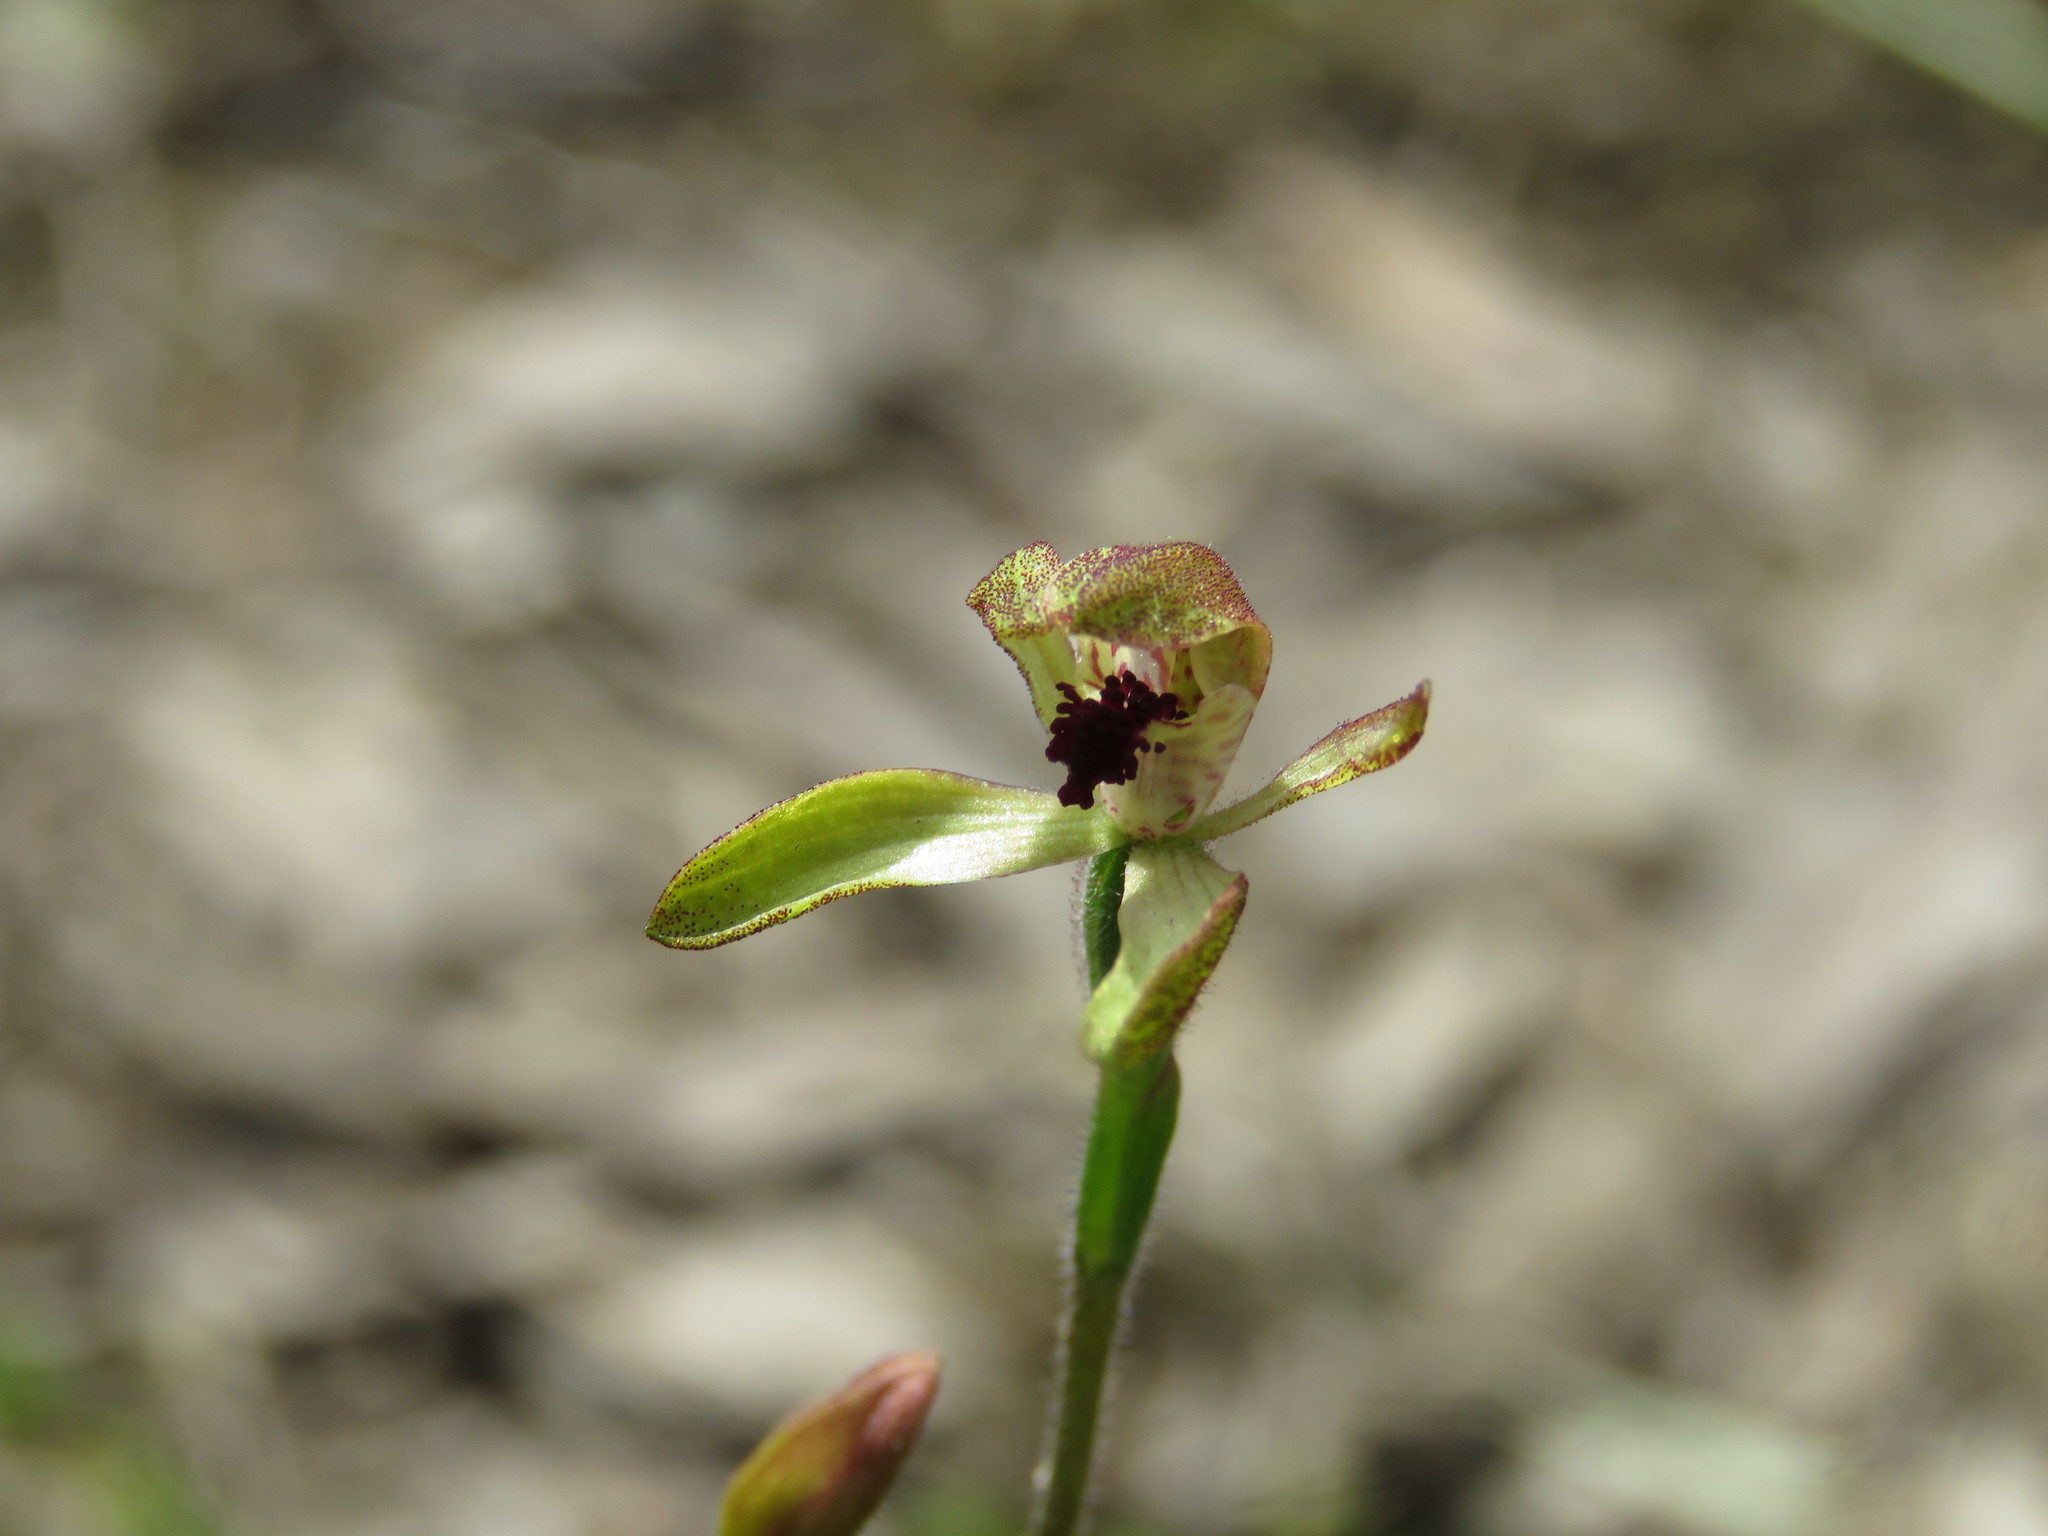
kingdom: Plantae
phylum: Tracheophyta
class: Liliopsida
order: Asparagales
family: Orchidaceae
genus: Caladenia
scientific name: Caladenia transitoria
